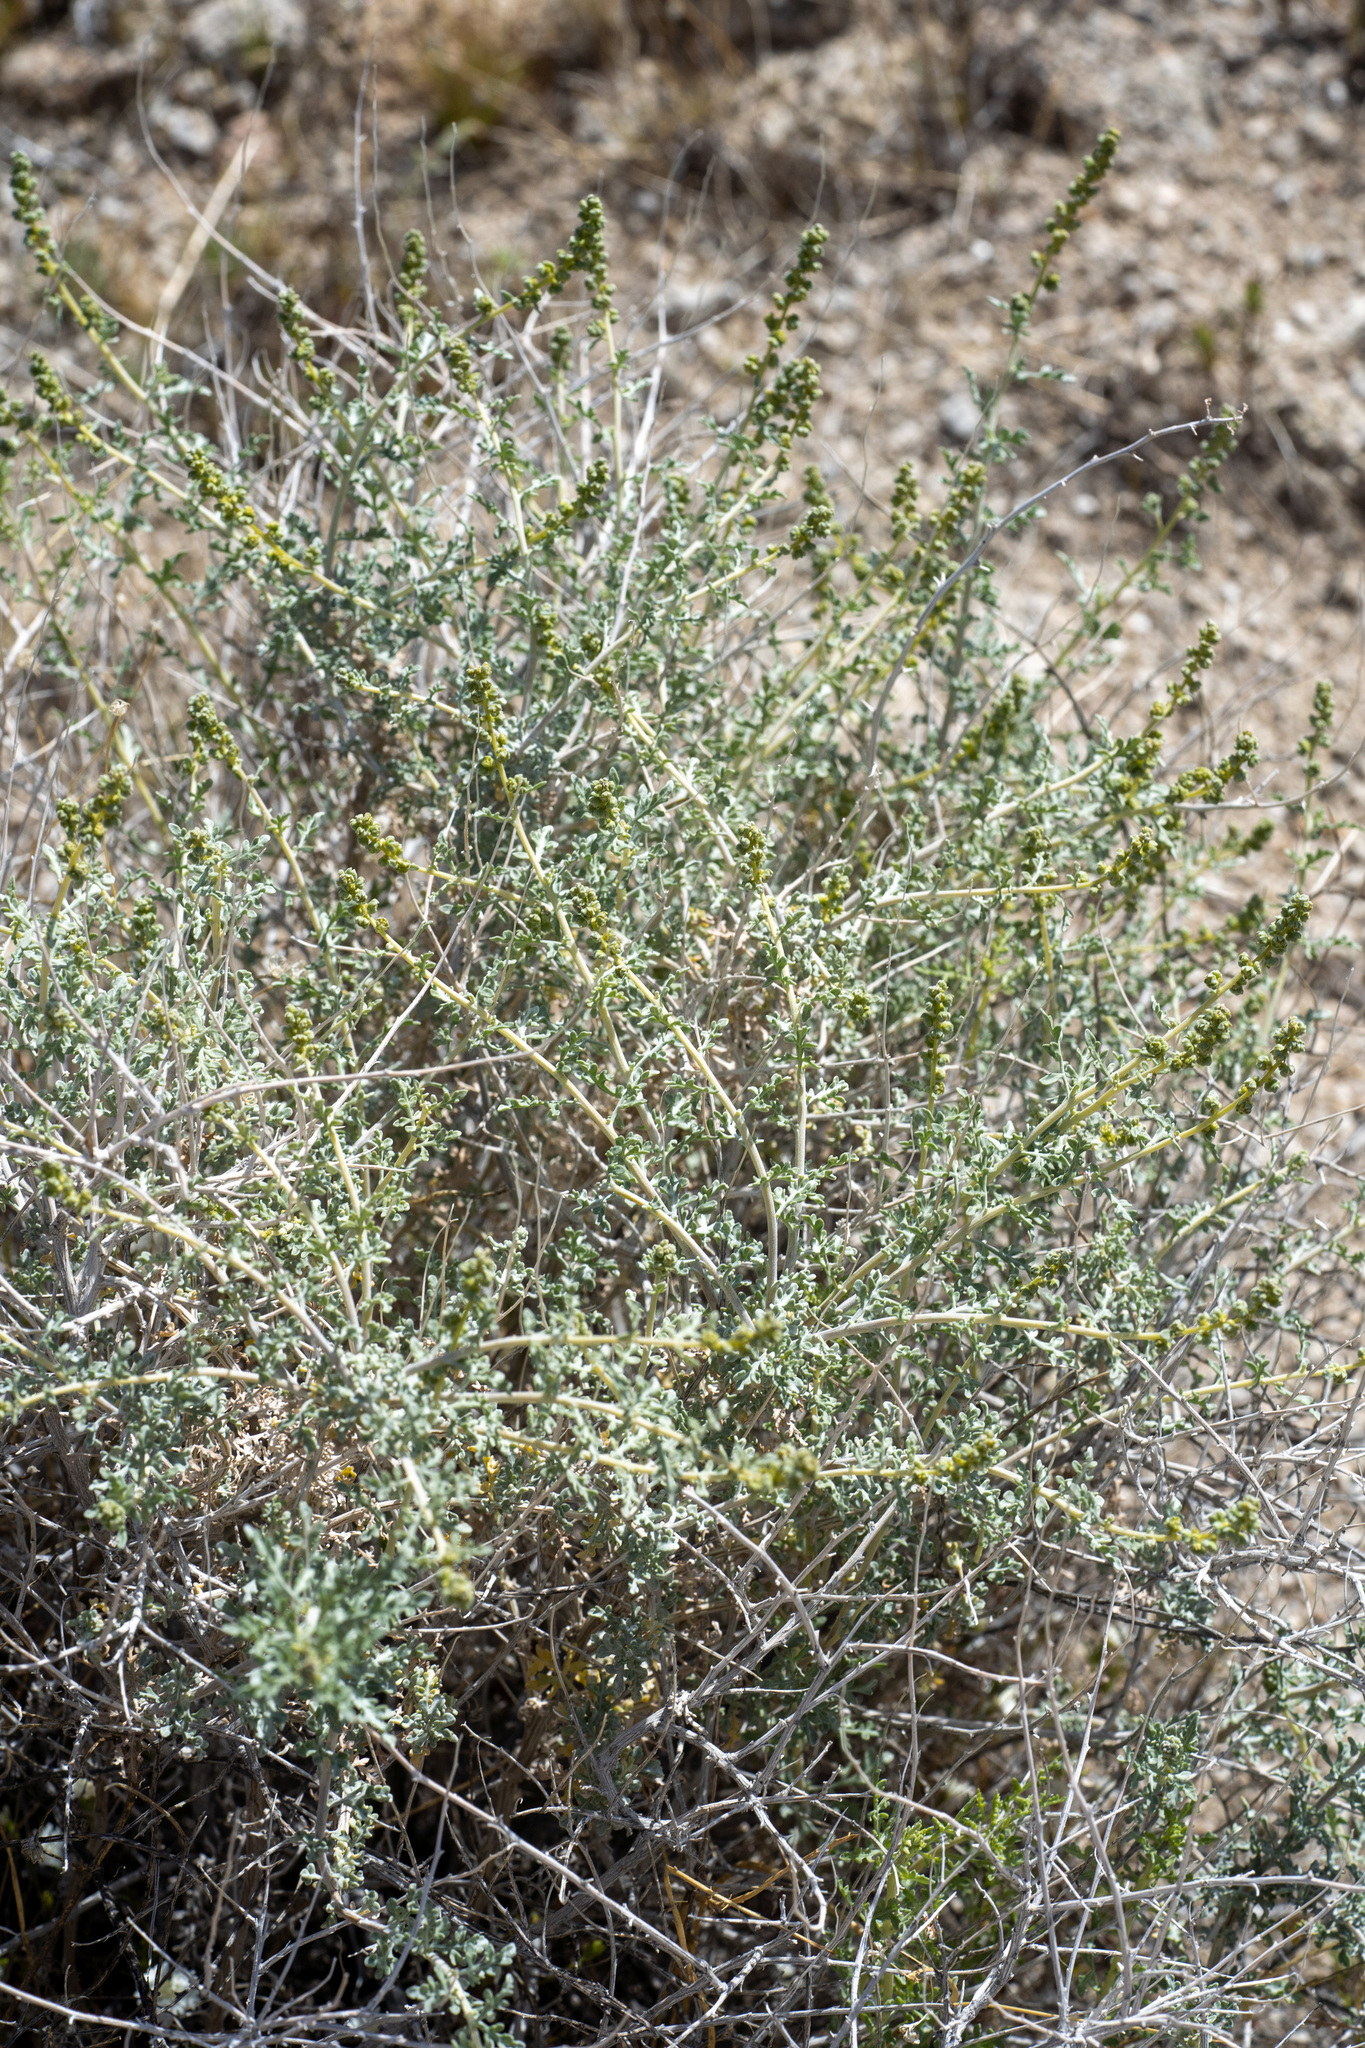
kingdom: Plantae
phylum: Tracheophyta
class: Magnoliopsida
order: Asterales
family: Asteraceae
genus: Ambrosia
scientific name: Ambrosia dumosa
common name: Bur-sage
